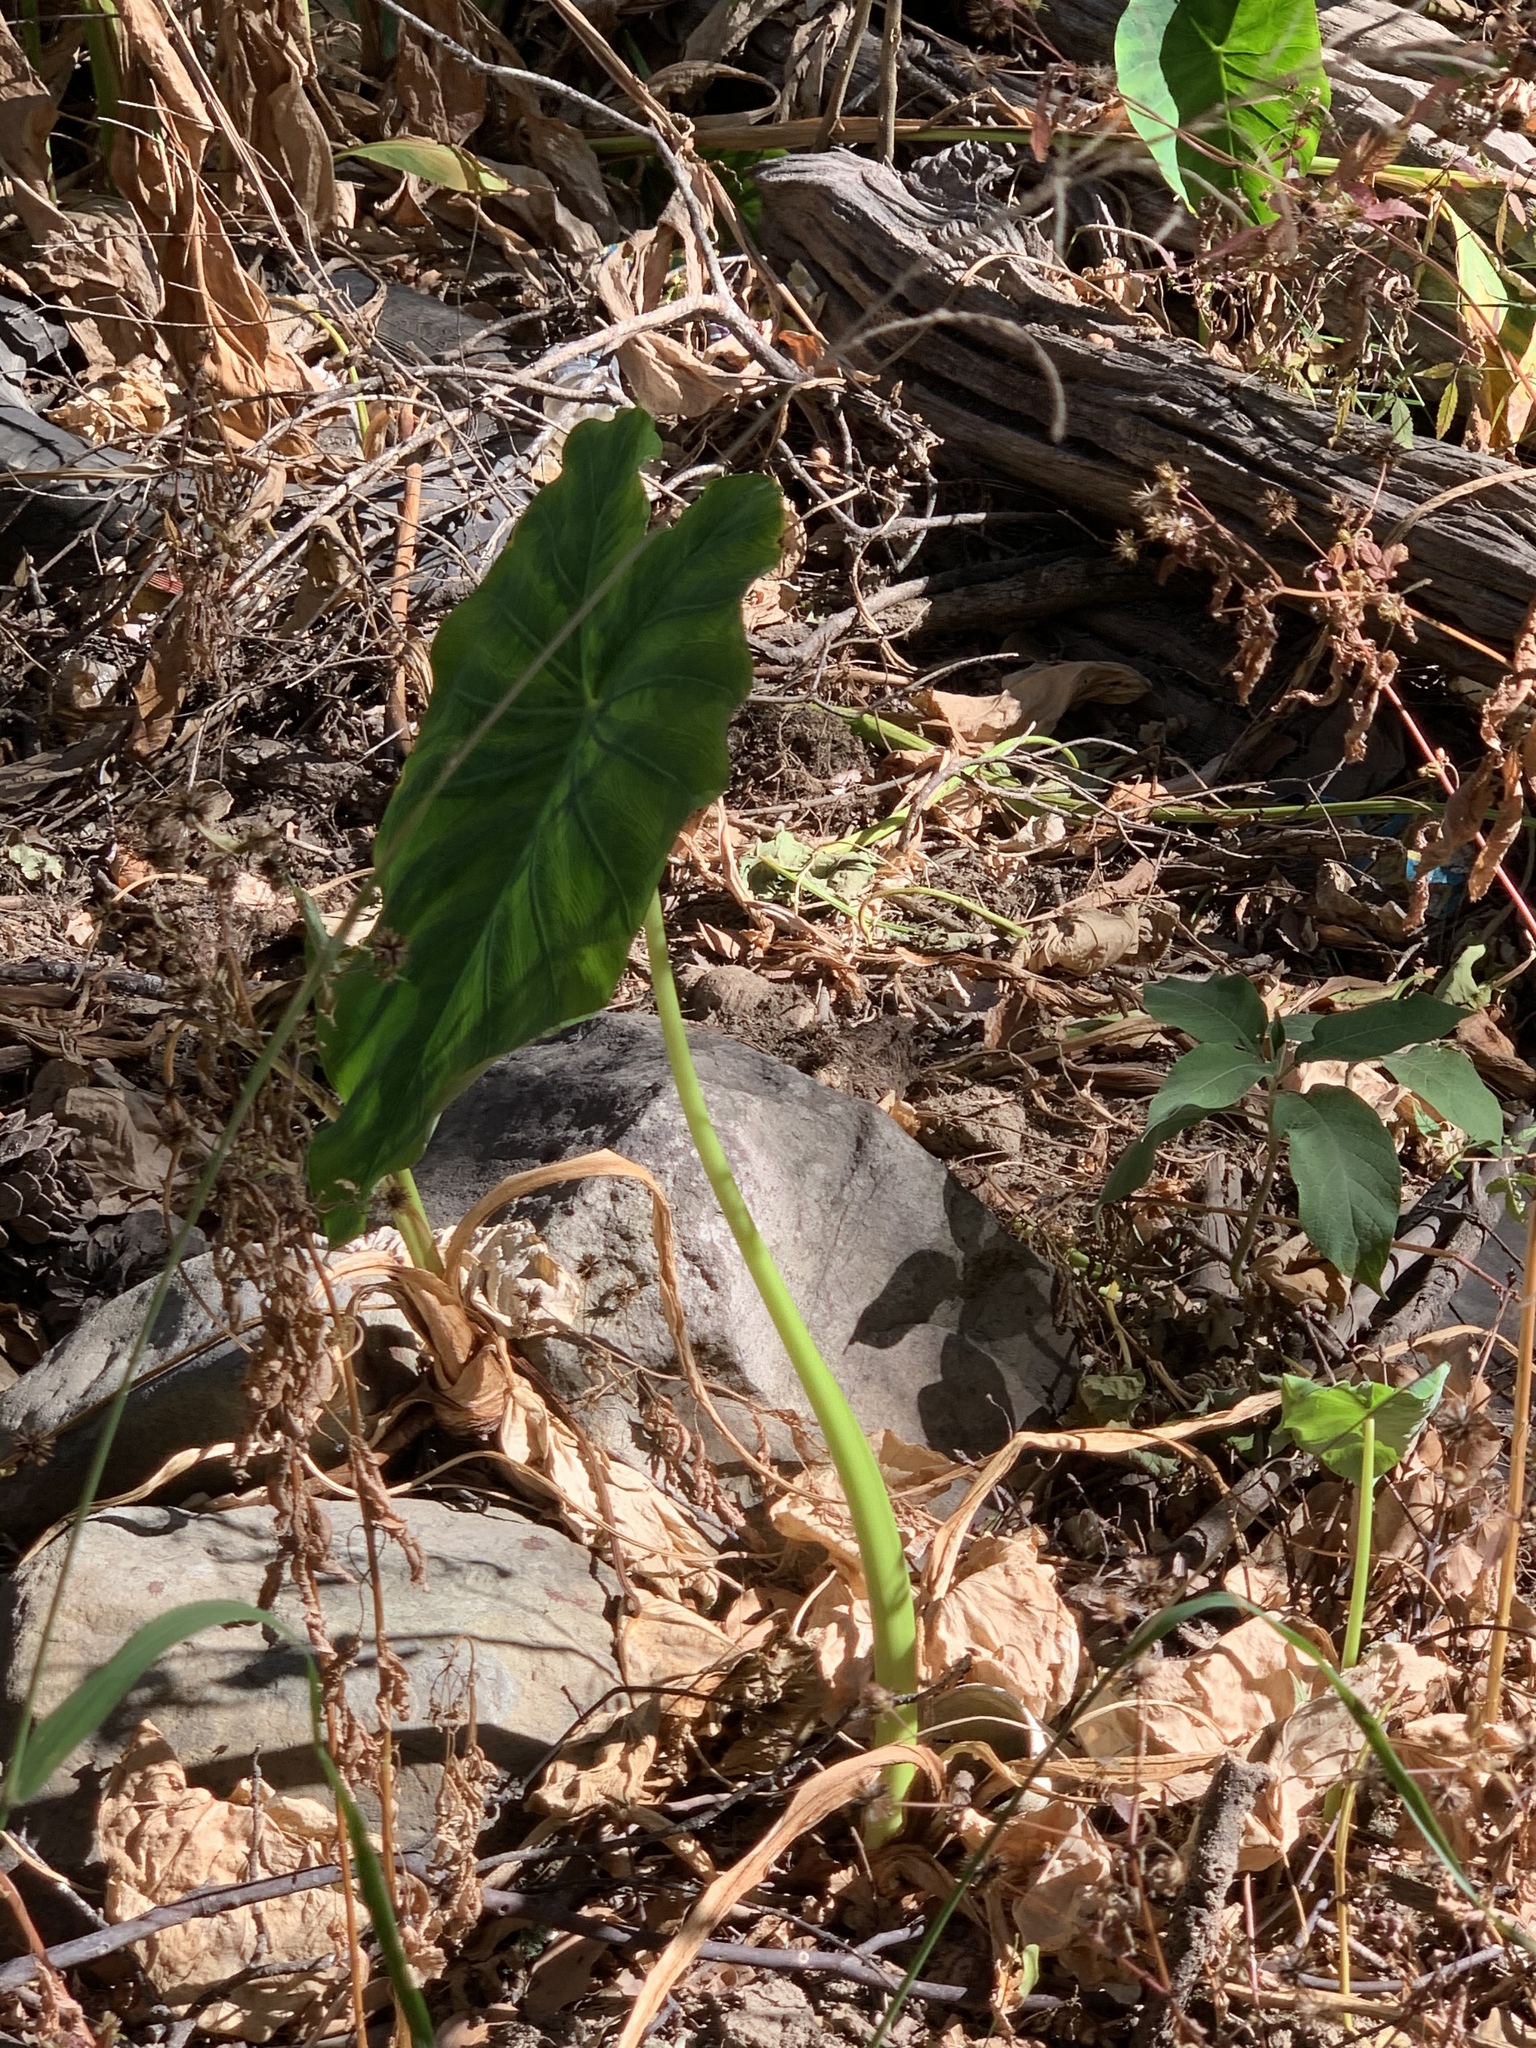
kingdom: Plantae
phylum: Tracheophyta
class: Liliopsida
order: Alismatales
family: Araceae
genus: Colocasia
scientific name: Colocasia esculenta
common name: Taro
